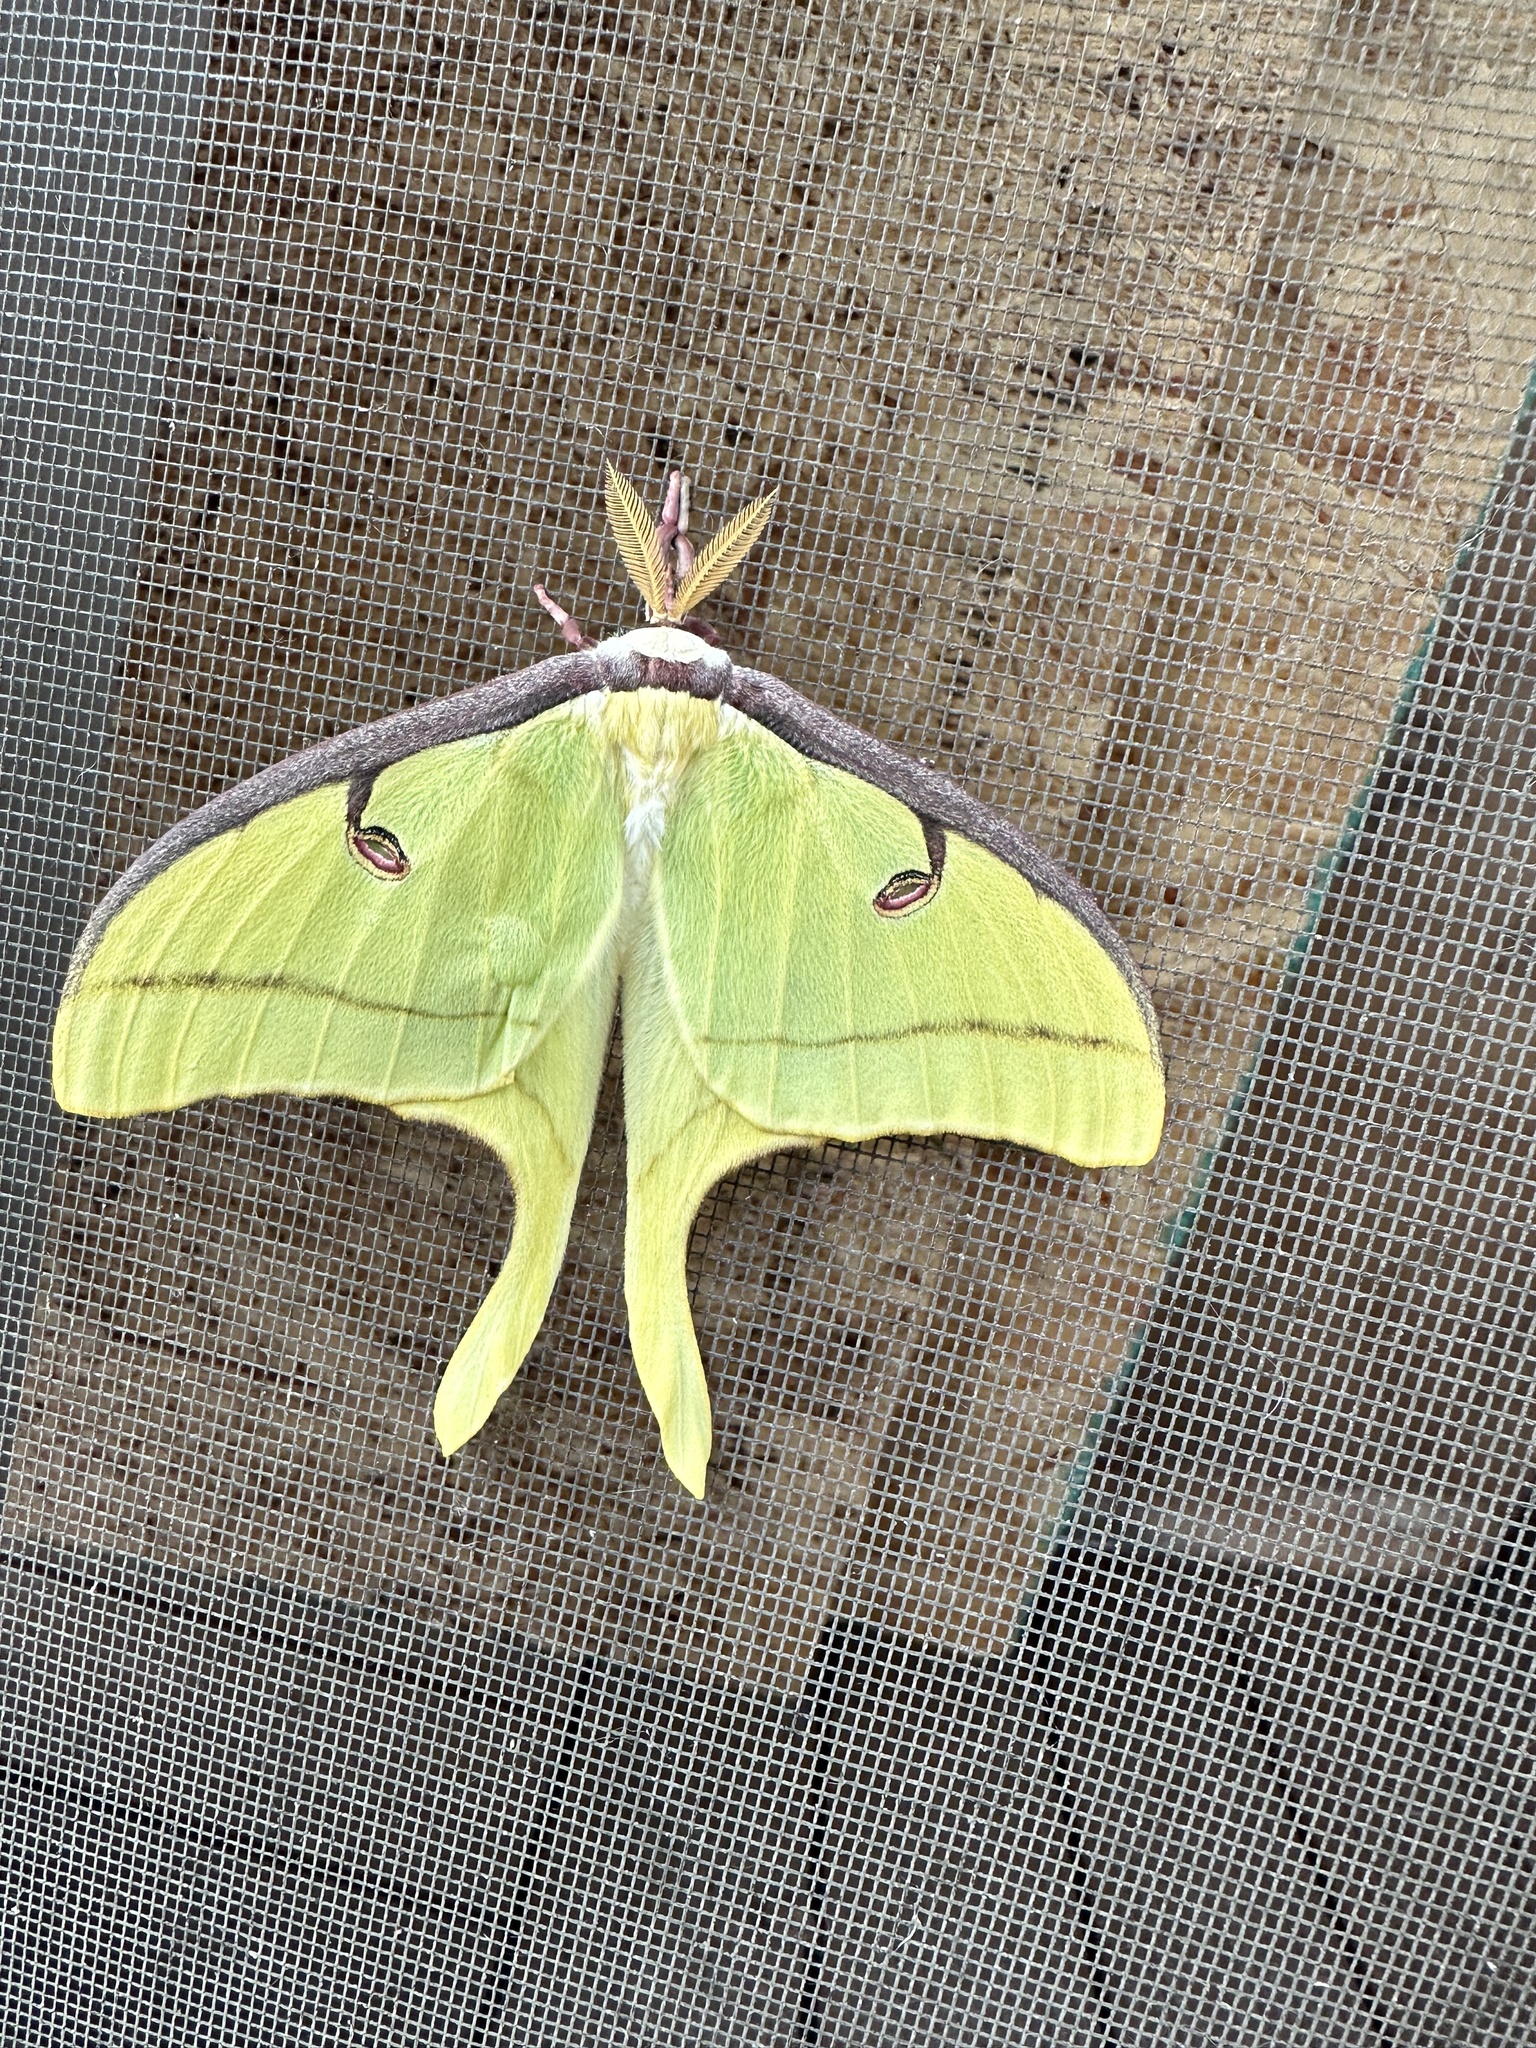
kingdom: Animalia
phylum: Arthropoda
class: Insecta
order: Lepidoptera
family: Saturniidae
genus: Actias
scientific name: Actias luna
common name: Luna moth
